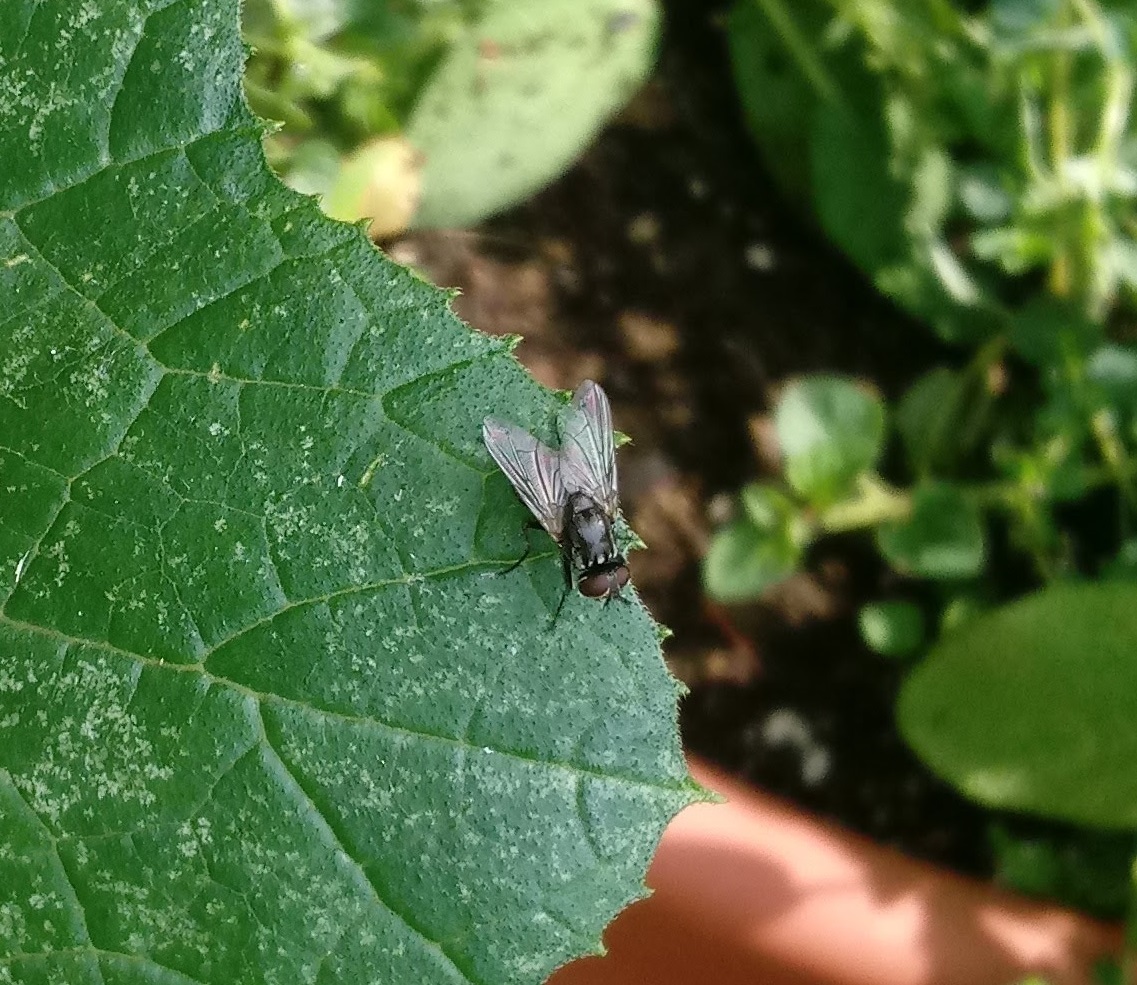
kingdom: Animalia
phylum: Arthropoda
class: Insecta
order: Diptera
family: Muscidae
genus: Musca
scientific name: Musca domestica
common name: House fly
